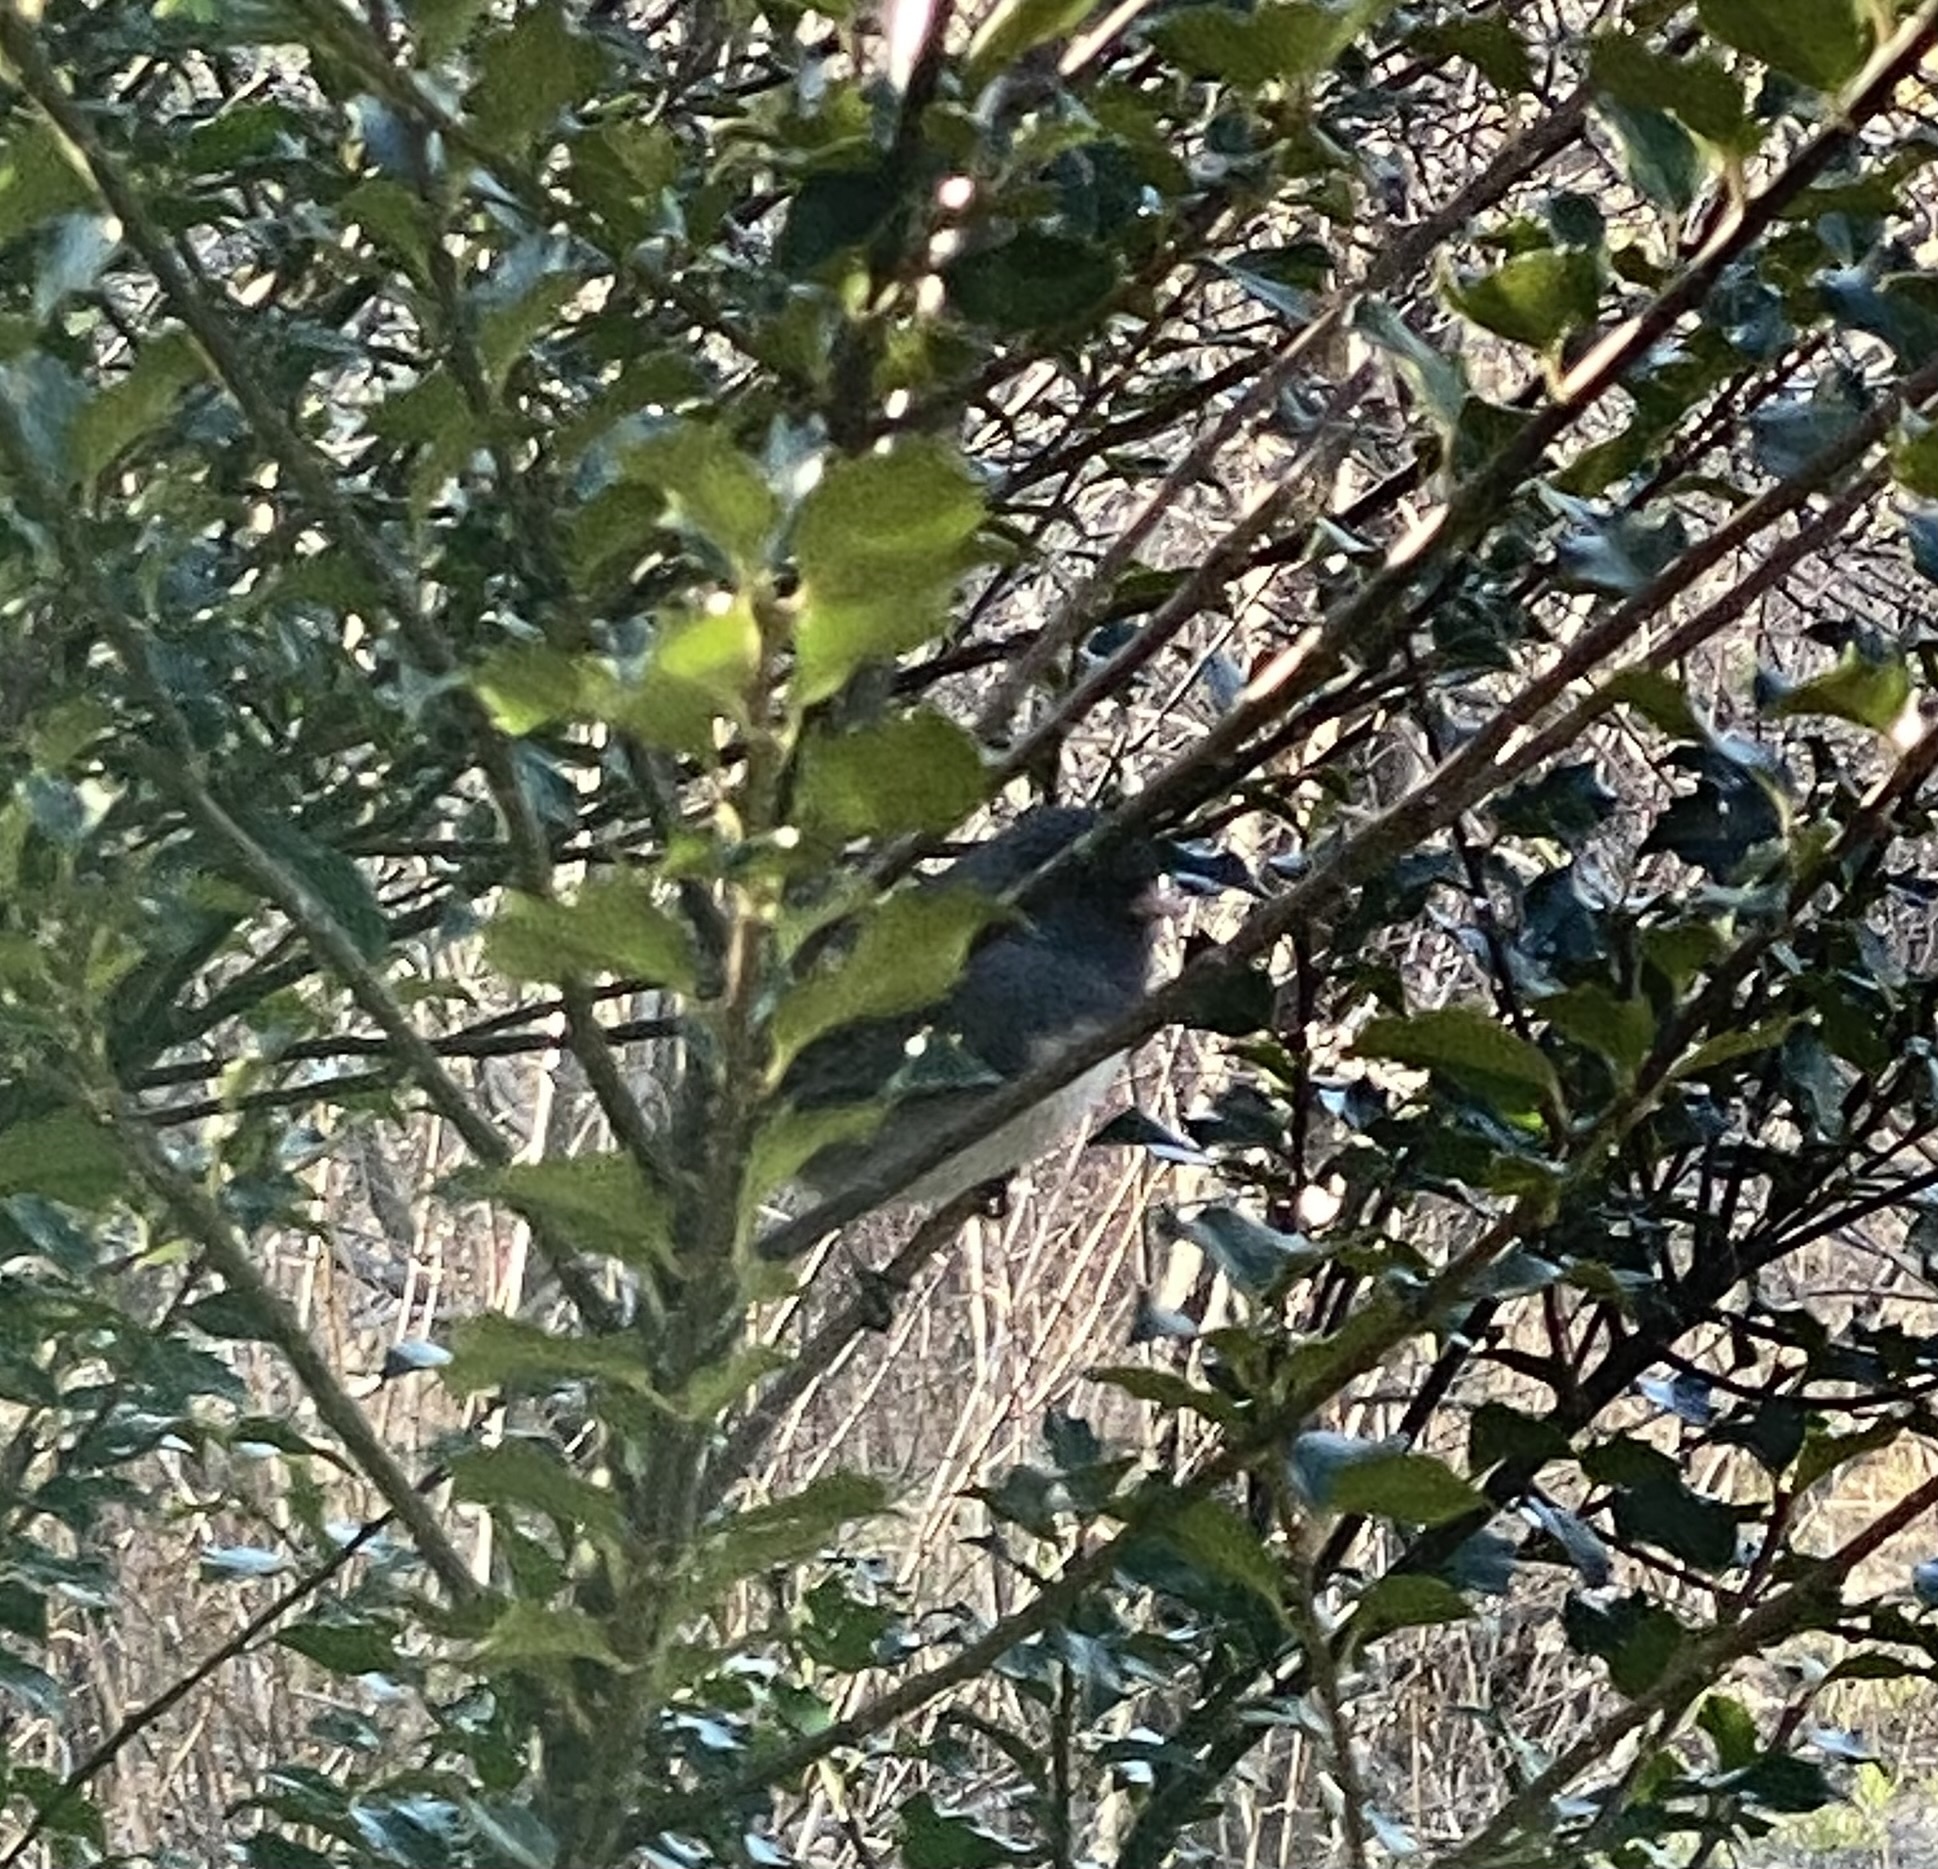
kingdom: Animalia
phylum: Chordata
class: Aves
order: Passeriformes
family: Passerellidae
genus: Junco
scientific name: Junco hyemalis
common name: Dark-eyed junco
